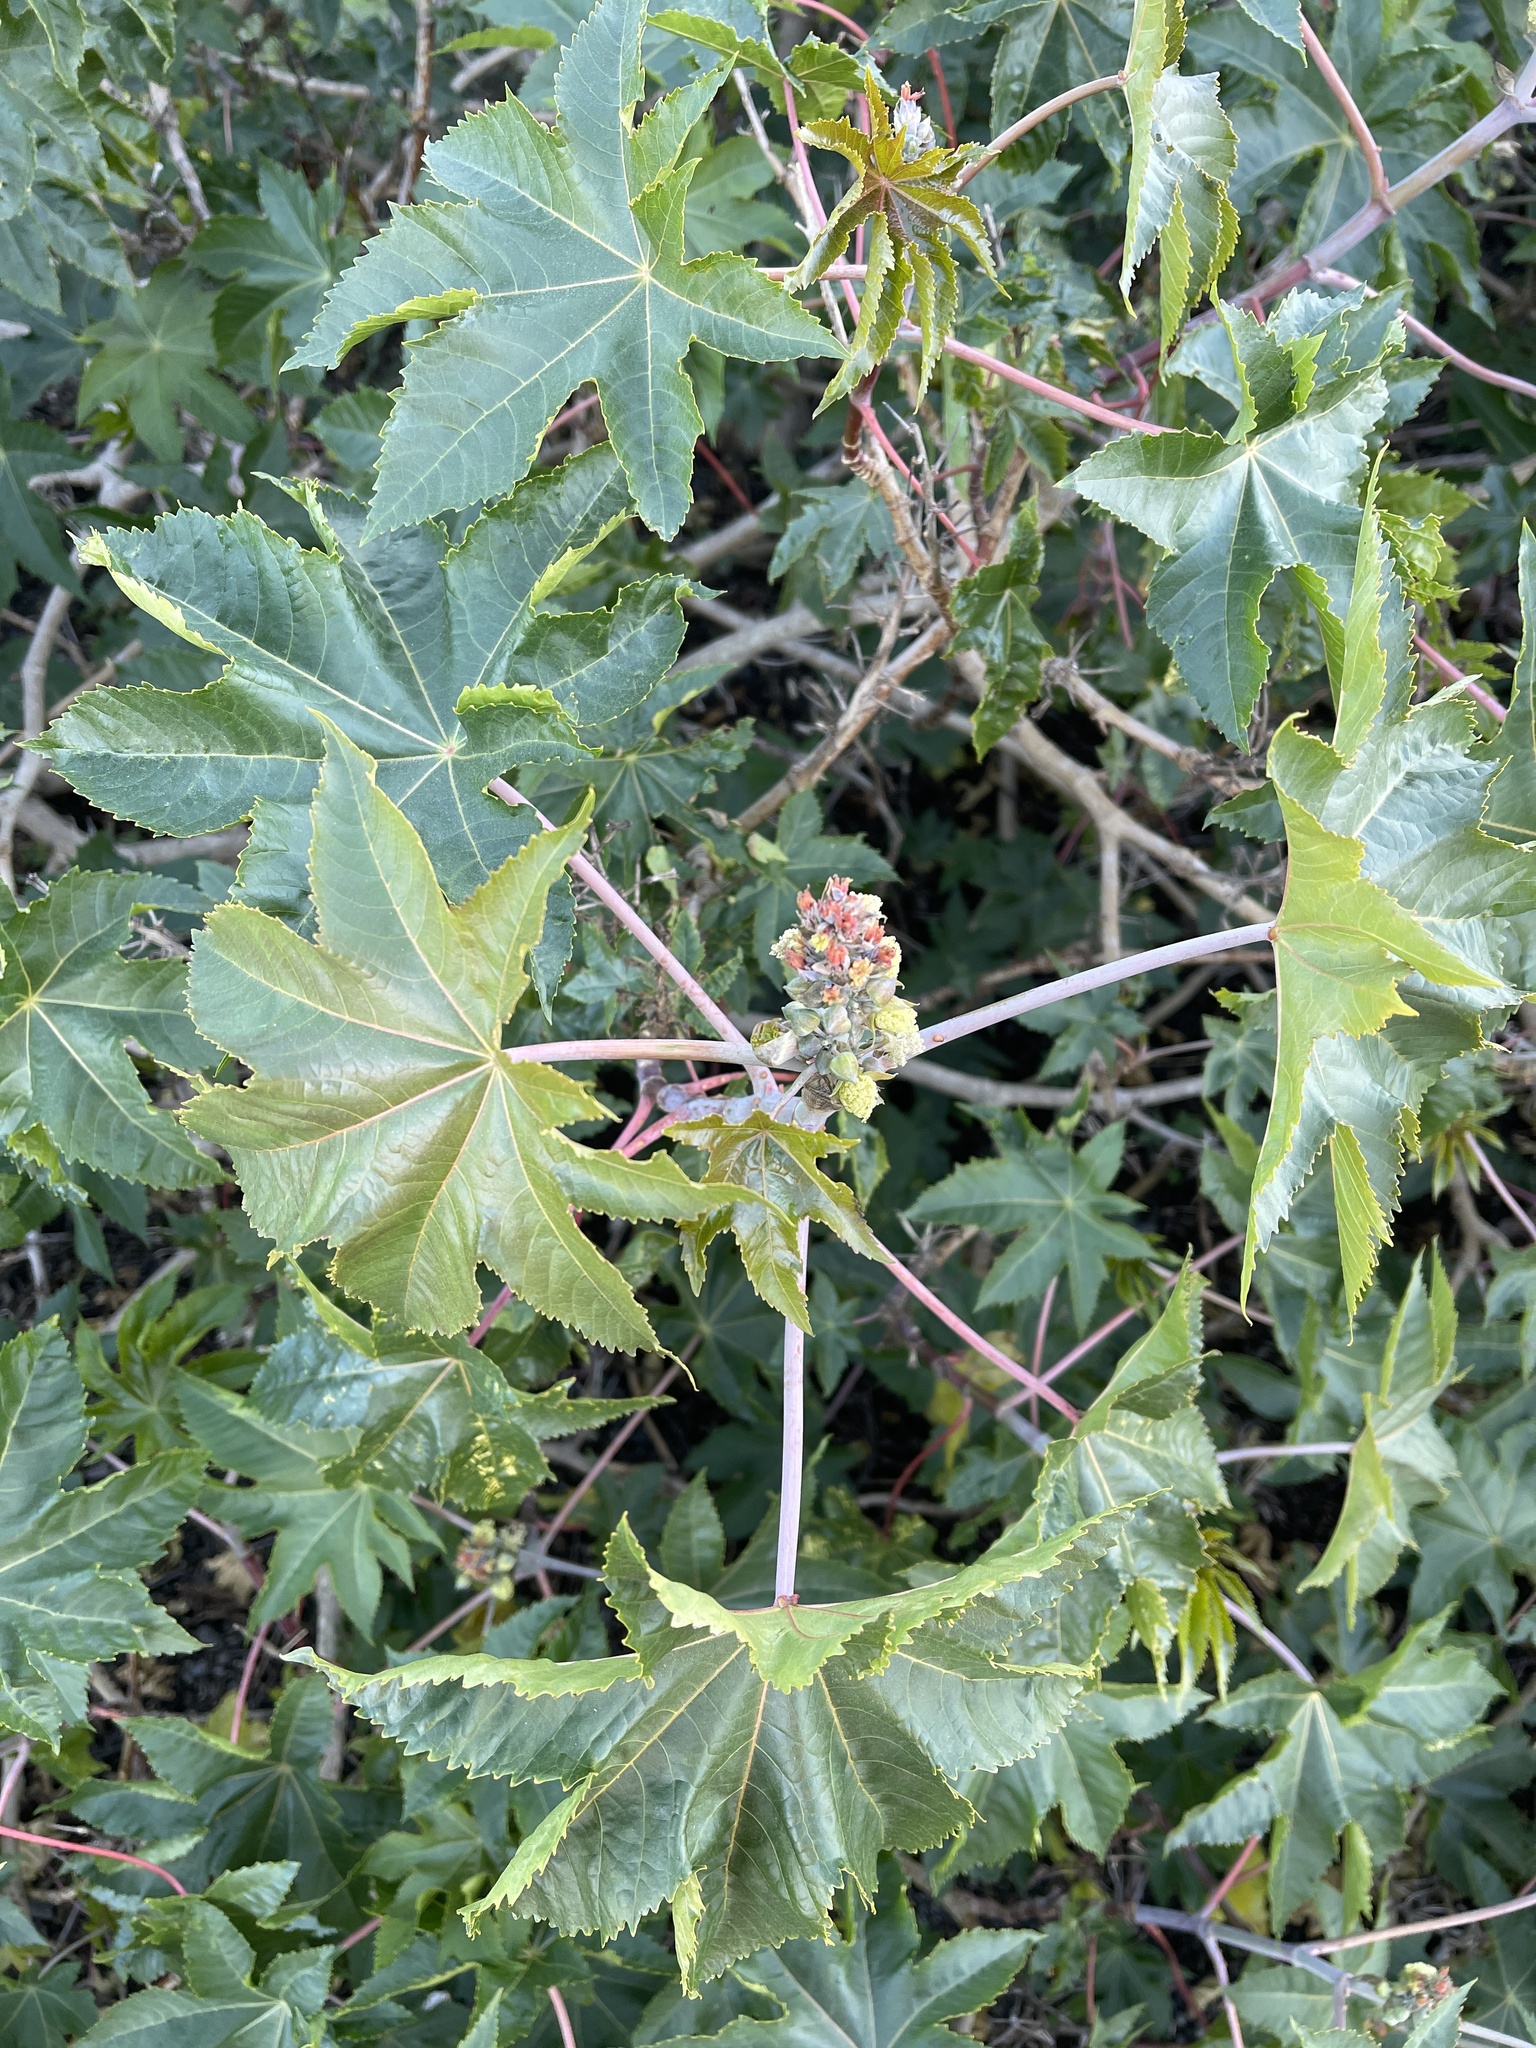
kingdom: Plantae
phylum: Tracheophyta
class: Magnoliopsida
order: Malpighiales
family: Euphorbiaceae
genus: Ricinus
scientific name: Ricinus communis
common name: Castor-oil-plant
